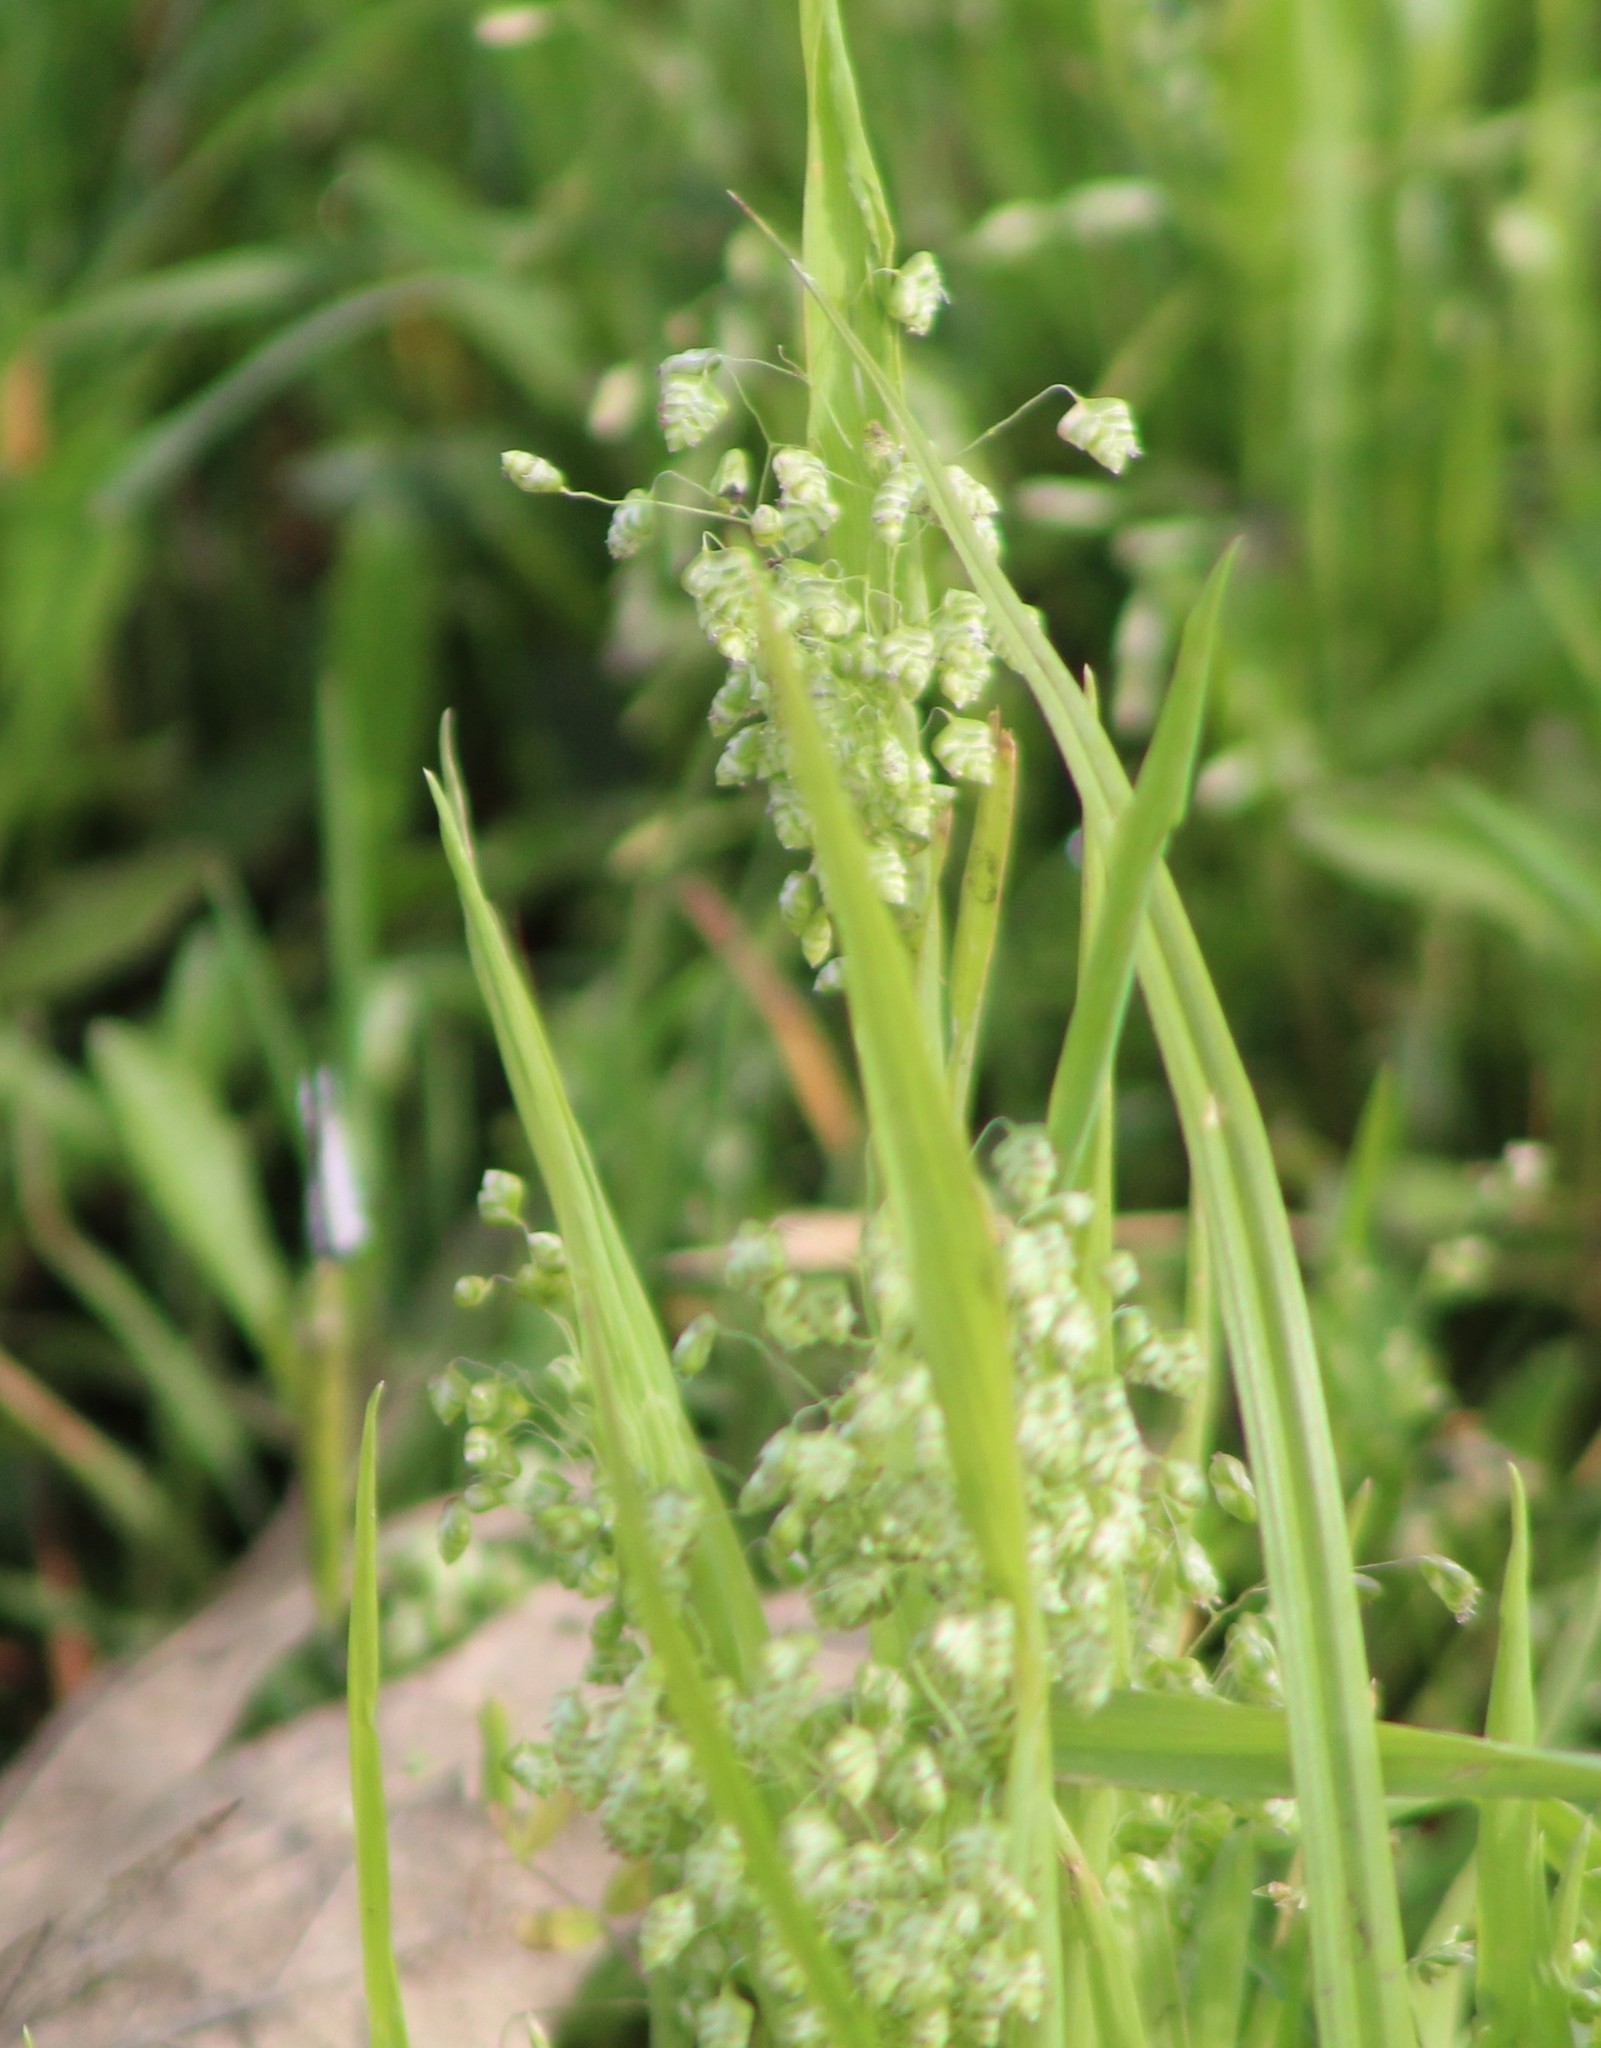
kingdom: Plantae
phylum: Tracheophyta
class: Liliopsida
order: Poales
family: Poaceae
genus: Briza
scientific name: Briza minor
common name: Lesser quaking-grass
